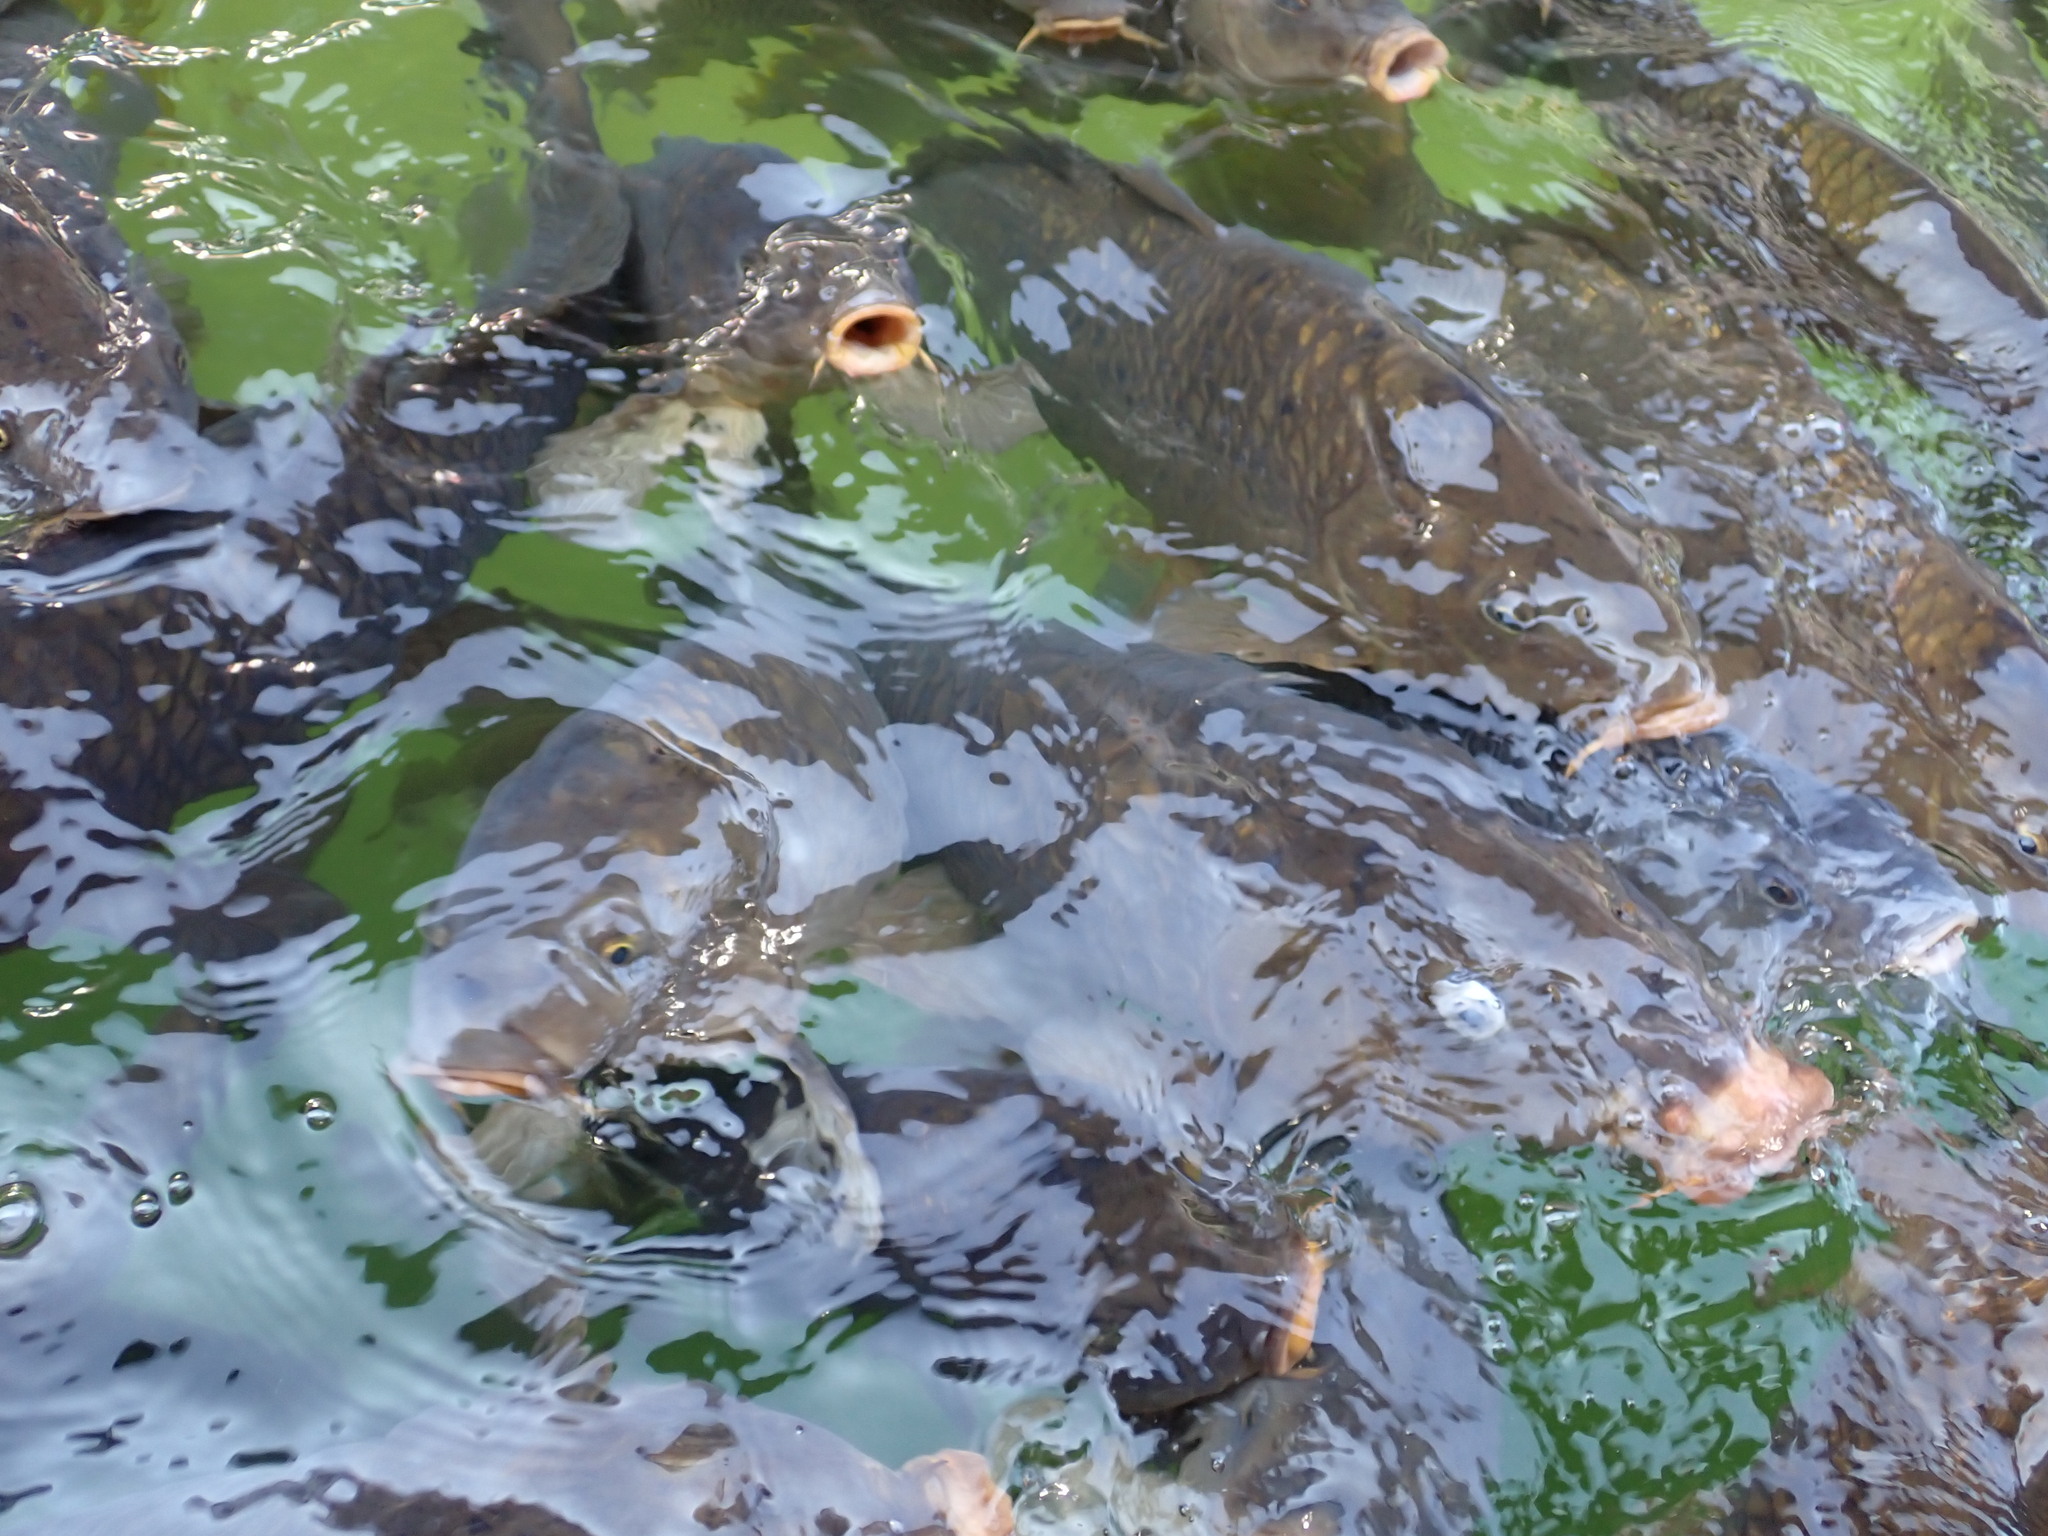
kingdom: Animalia
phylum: Chordata
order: Cypriniformes
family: Cyprinidae
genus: Cyprinus
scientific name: Cyprinus carpio
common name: Common carp
